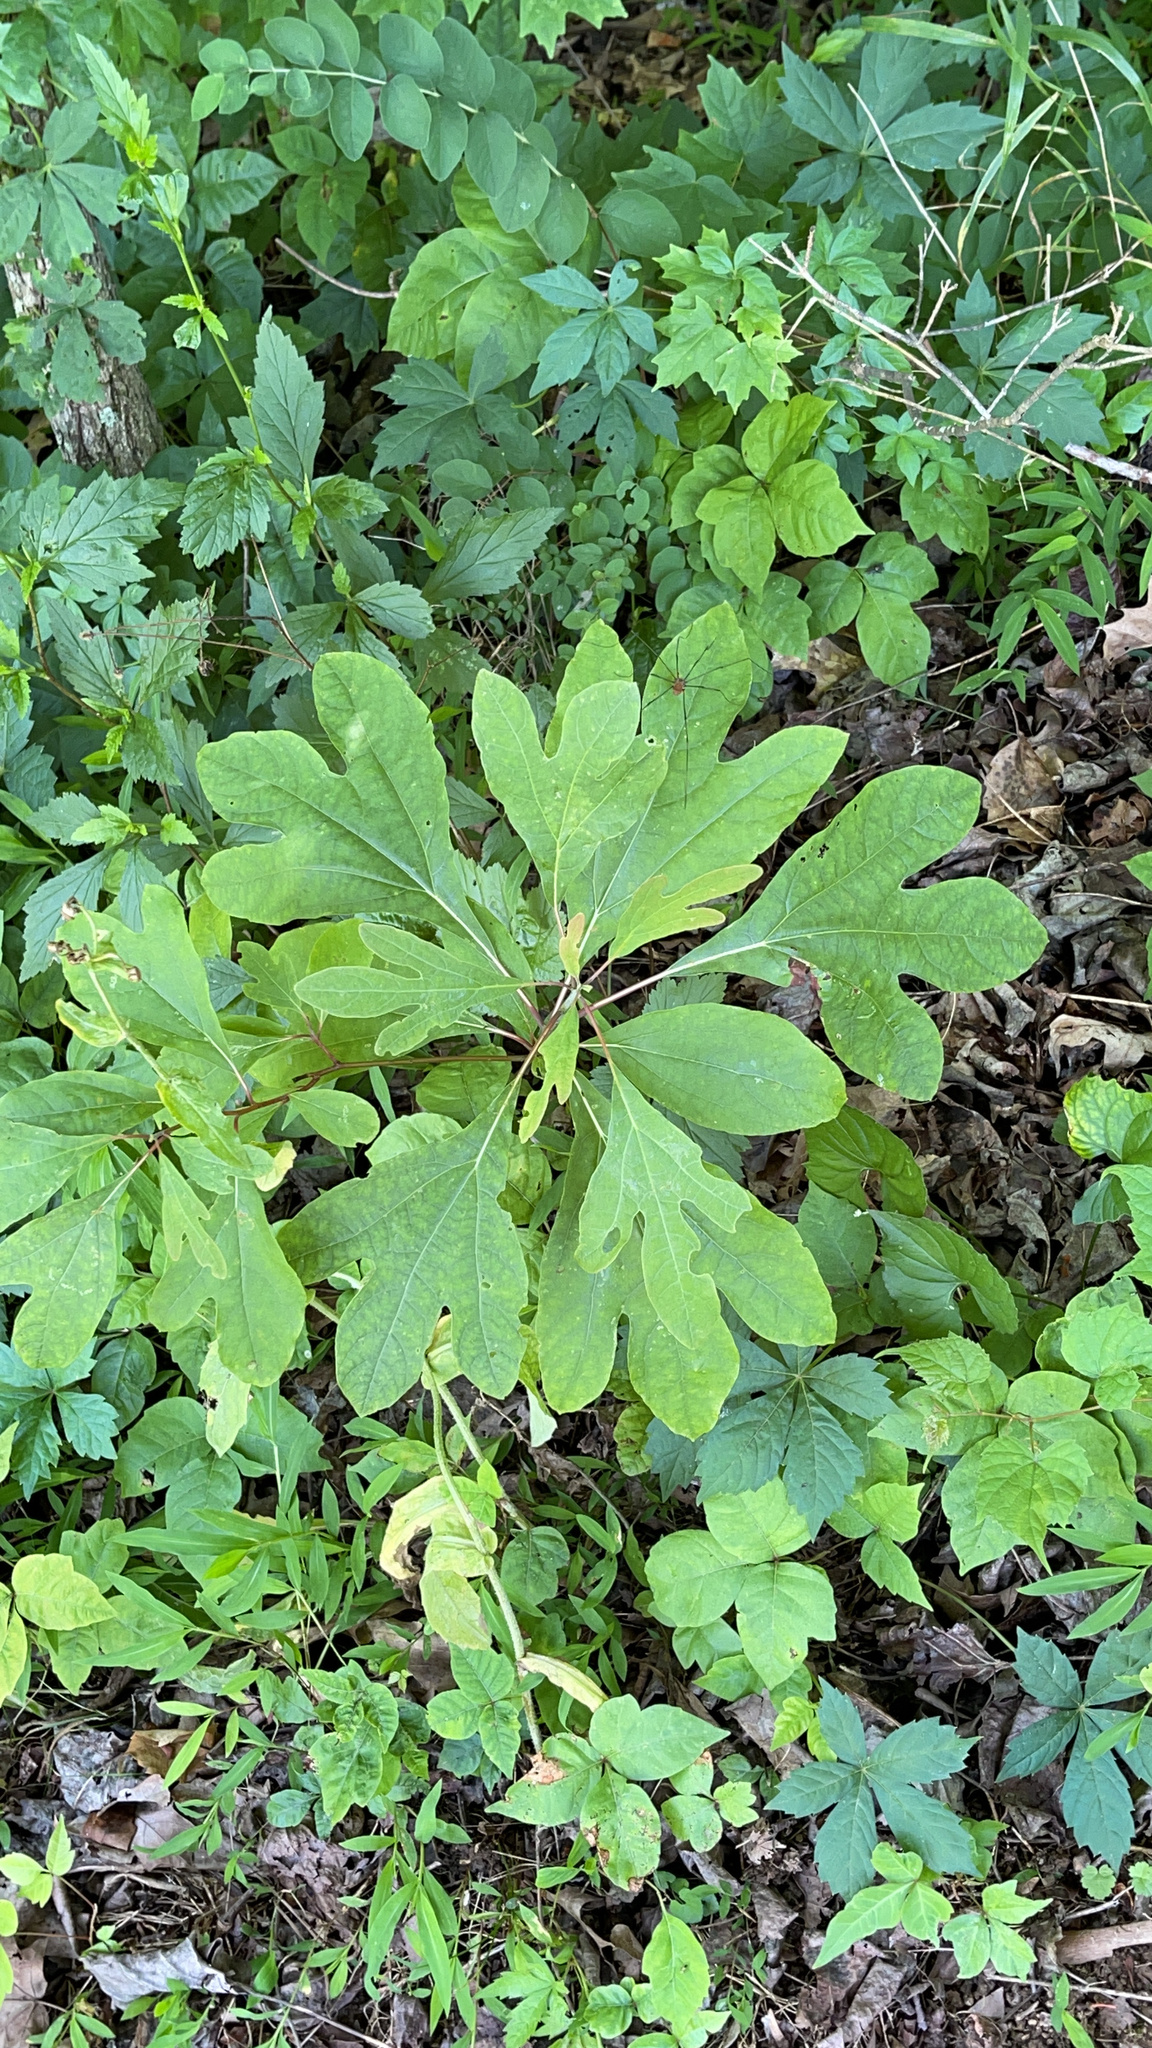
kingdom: Plantae
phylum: Tracheophyta
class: Magnoliopsida
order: Laurales
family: Lauraceae
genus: Sassafras
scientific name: Sassafras albidum
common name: Sassafras
